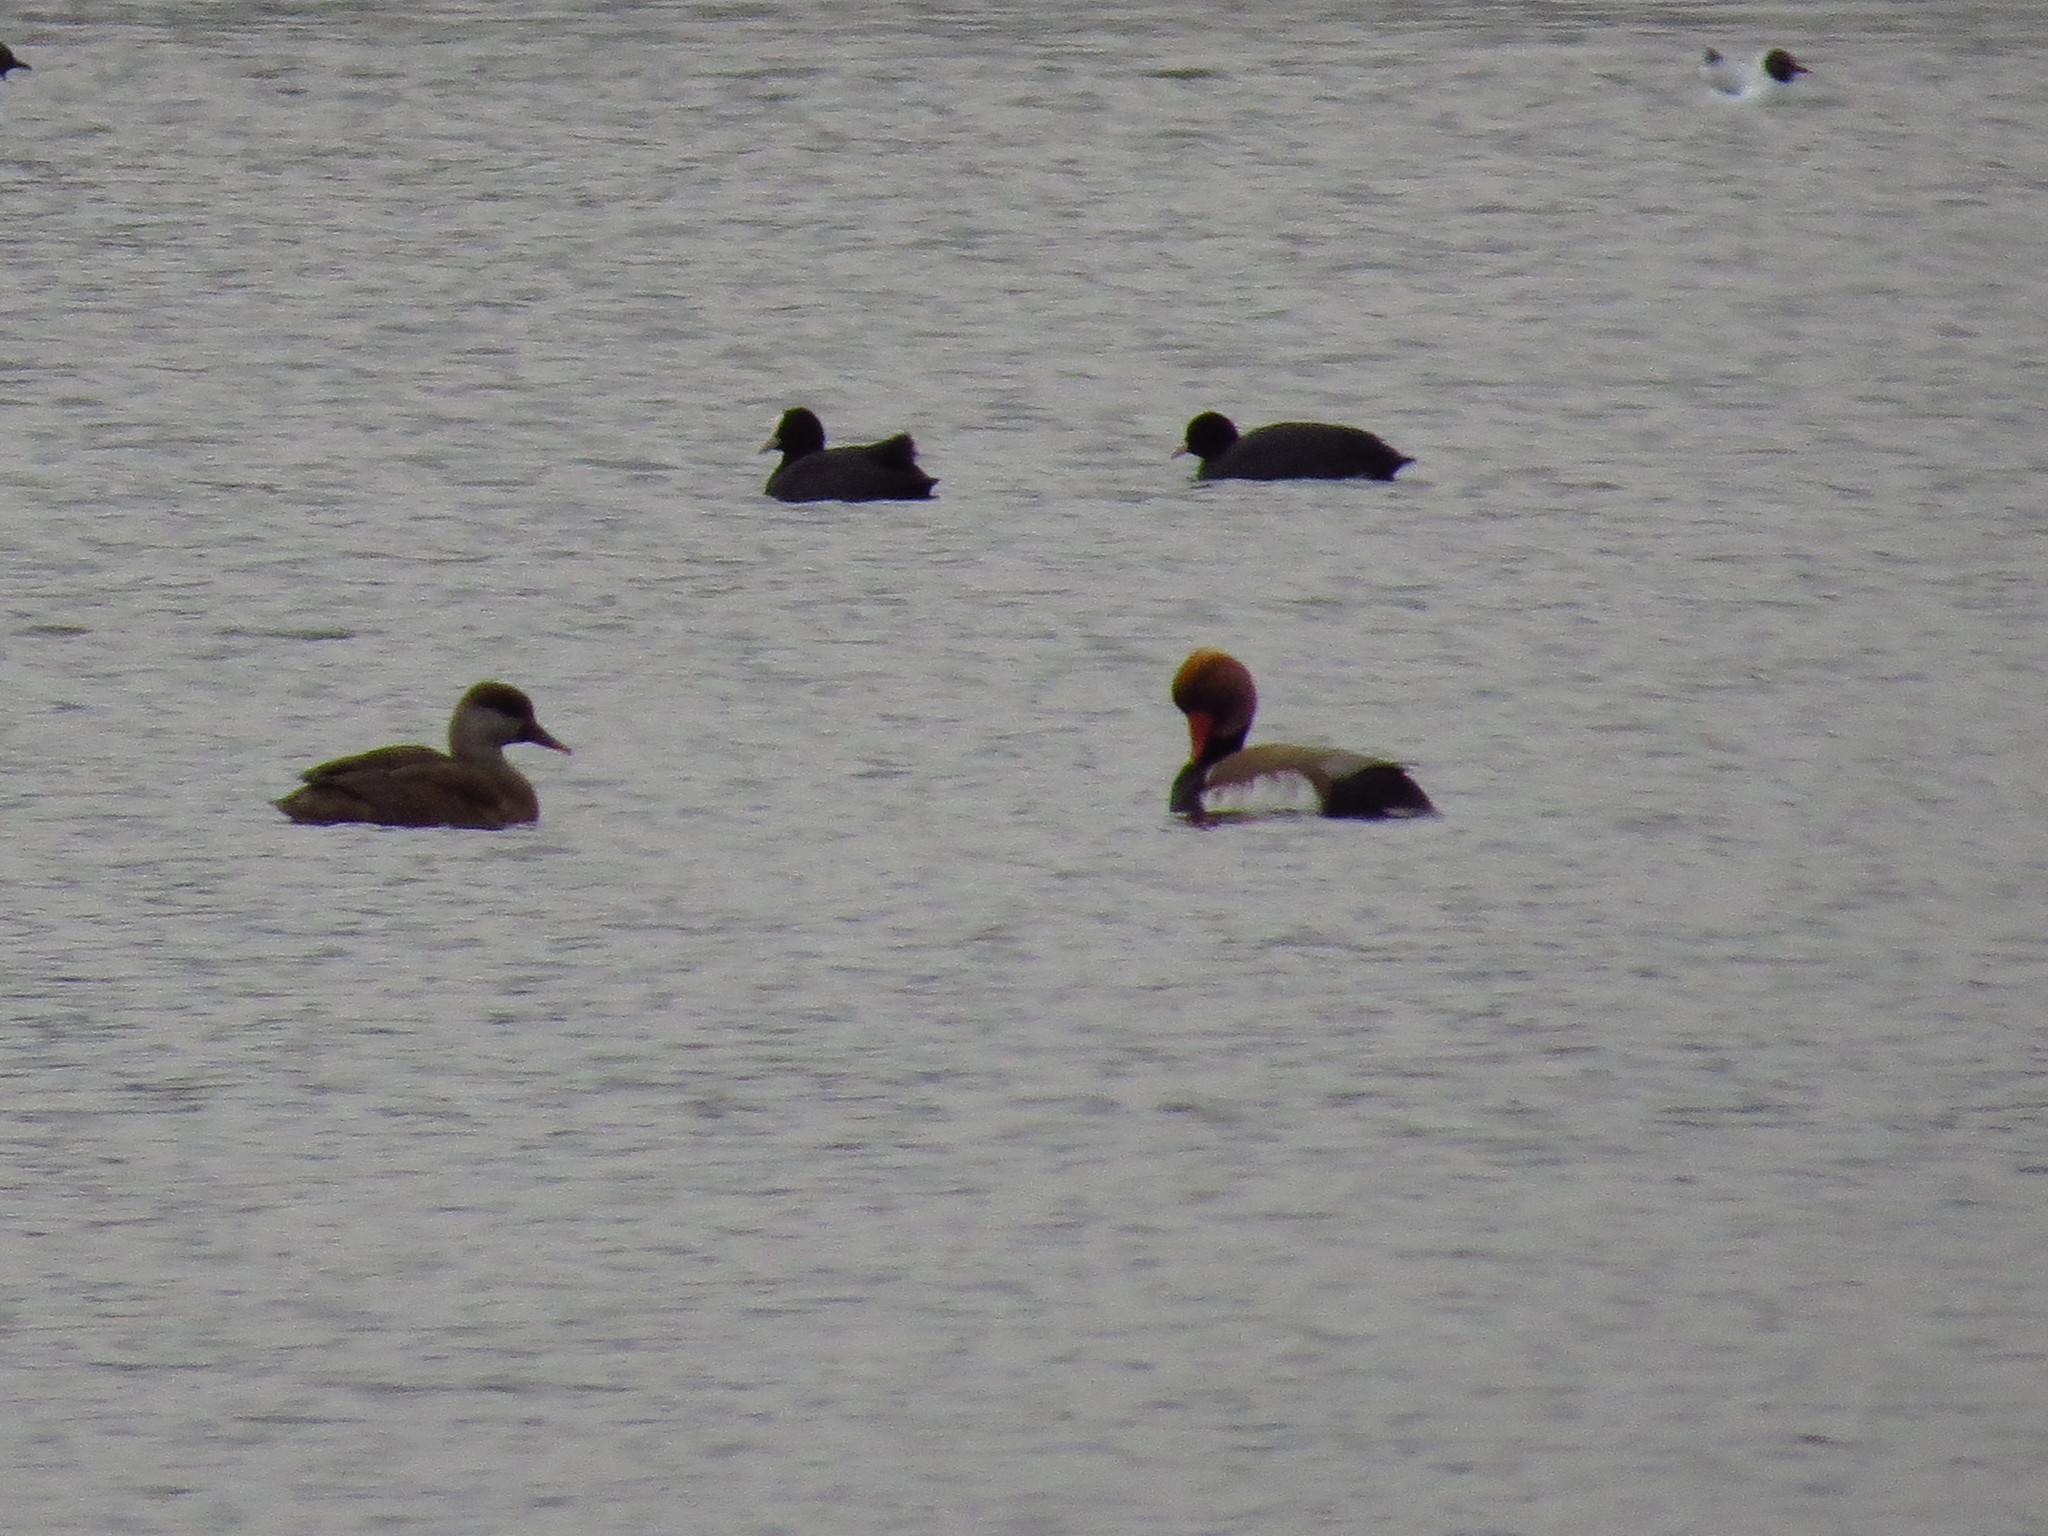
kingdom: Animalia
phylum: Chordata
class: Aves
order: Anseriformes
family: Anatidae
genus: Netta
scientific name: Netta rufina
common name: Red-crested pochard
